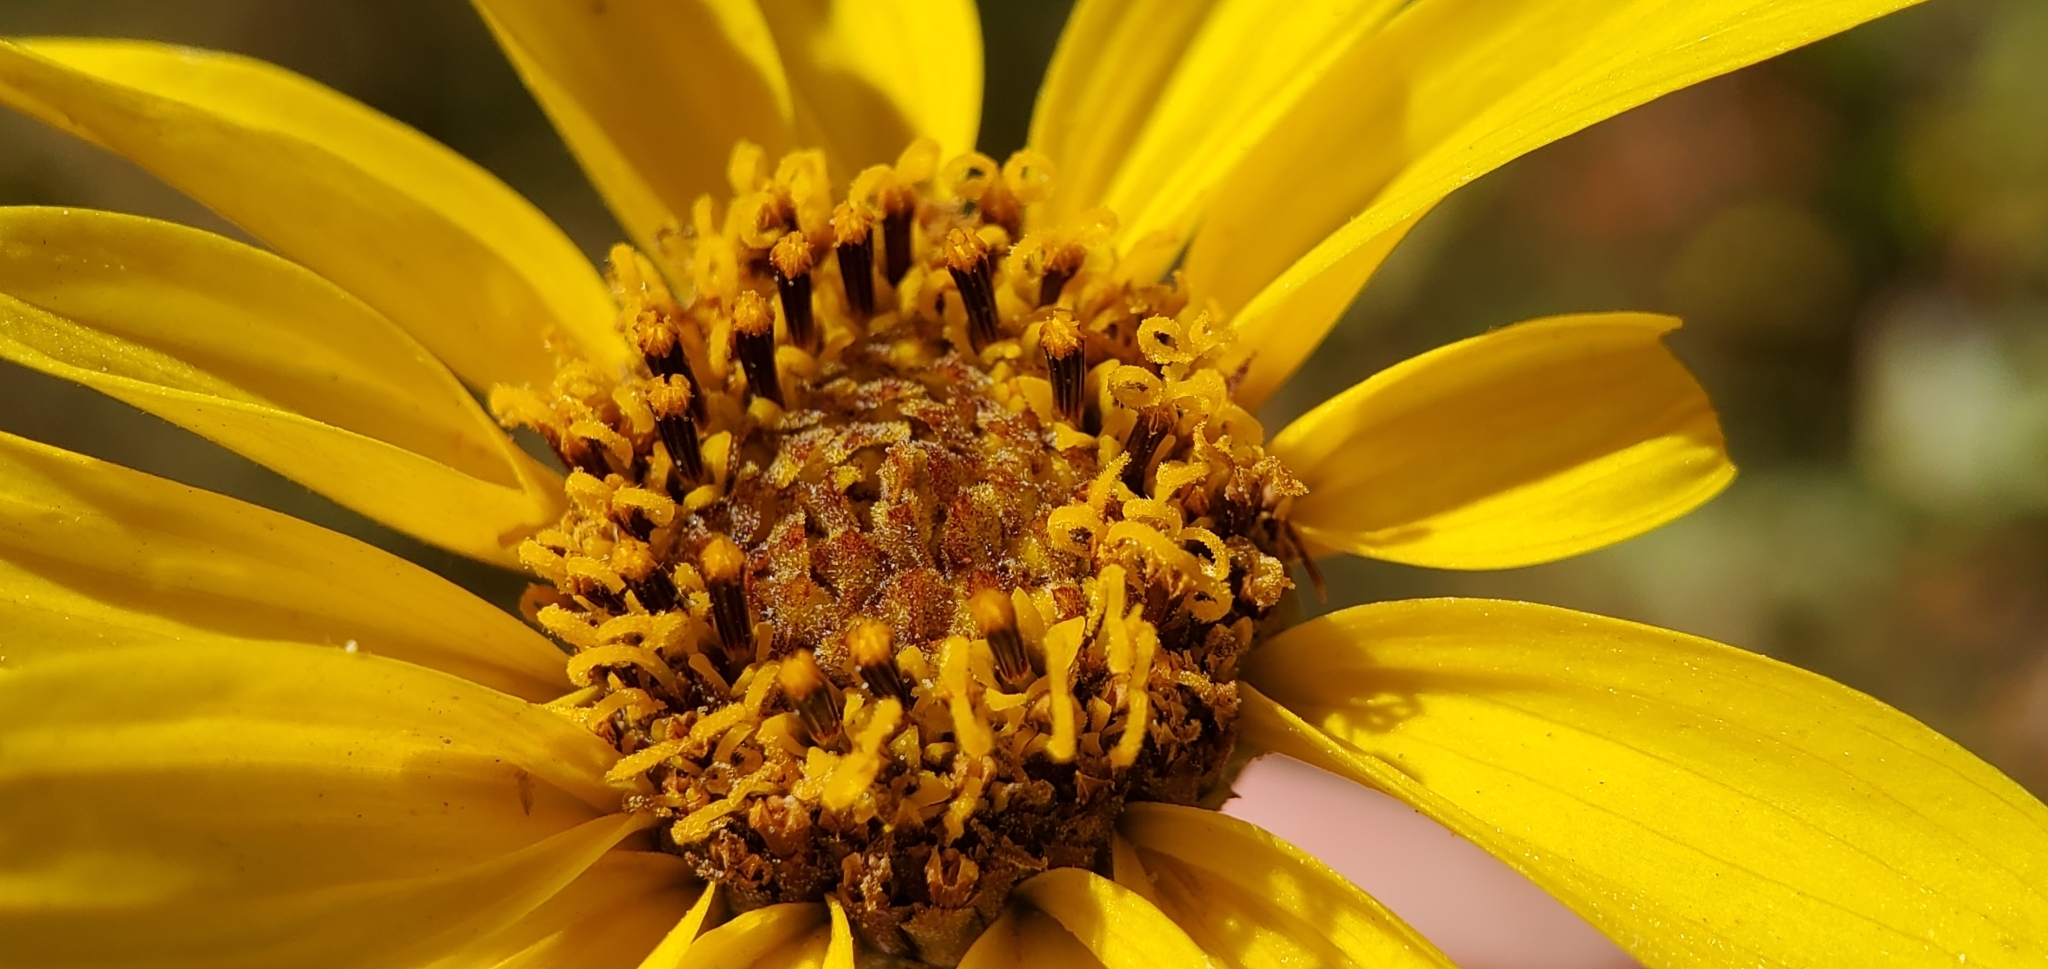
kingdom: Plantae
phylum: Tracheophyta
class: Magnoliopsida
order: Asterales
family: Asteraceae
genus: Helianthus
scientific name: Helianthus gracilentus
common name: Slender sunflower
